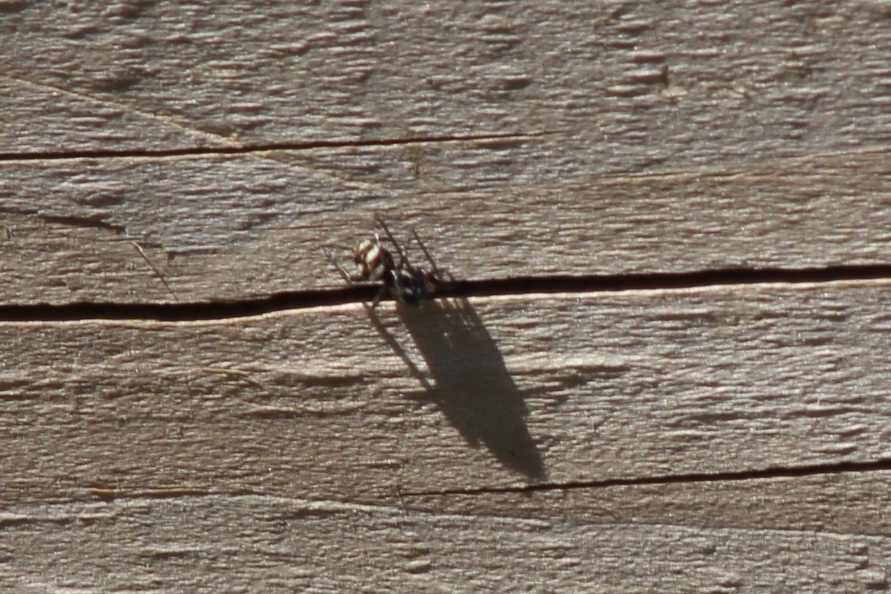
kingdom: Animalia
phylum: Arthropoda
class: Arachnida
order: Araneae
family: Salticidae
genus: Salticus
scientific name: Salticus scenicus
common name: Zebra jumper
